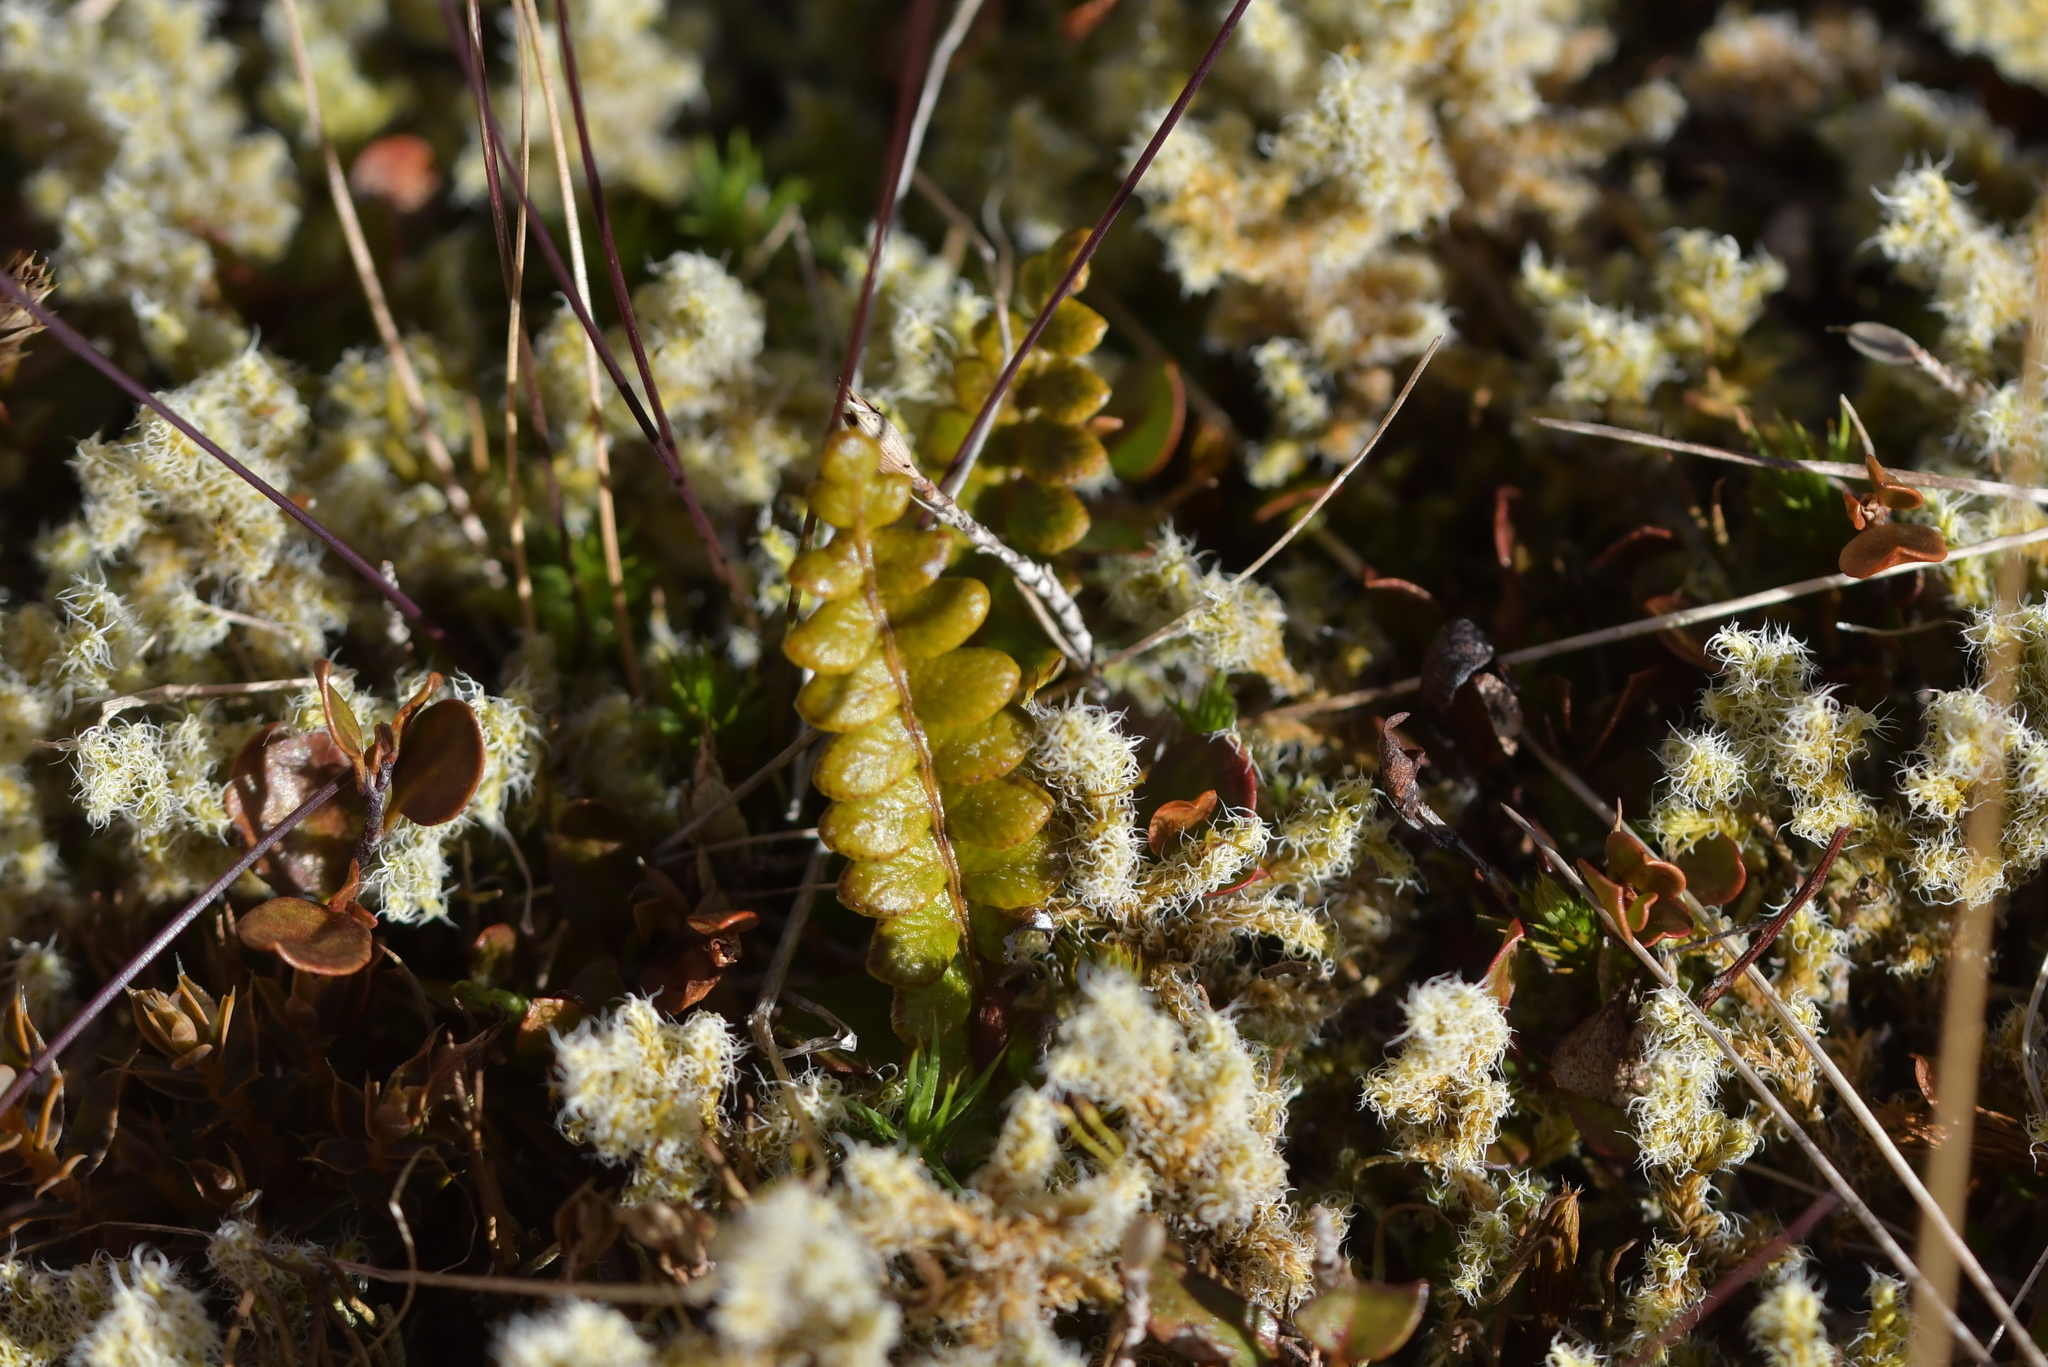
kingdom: Plantae
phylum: Tracheophyta
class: Polypodiopsida
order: Polypodiales
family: Blechnaceae
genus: Austroblechnum
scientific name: Austroblechnum penna-marina
